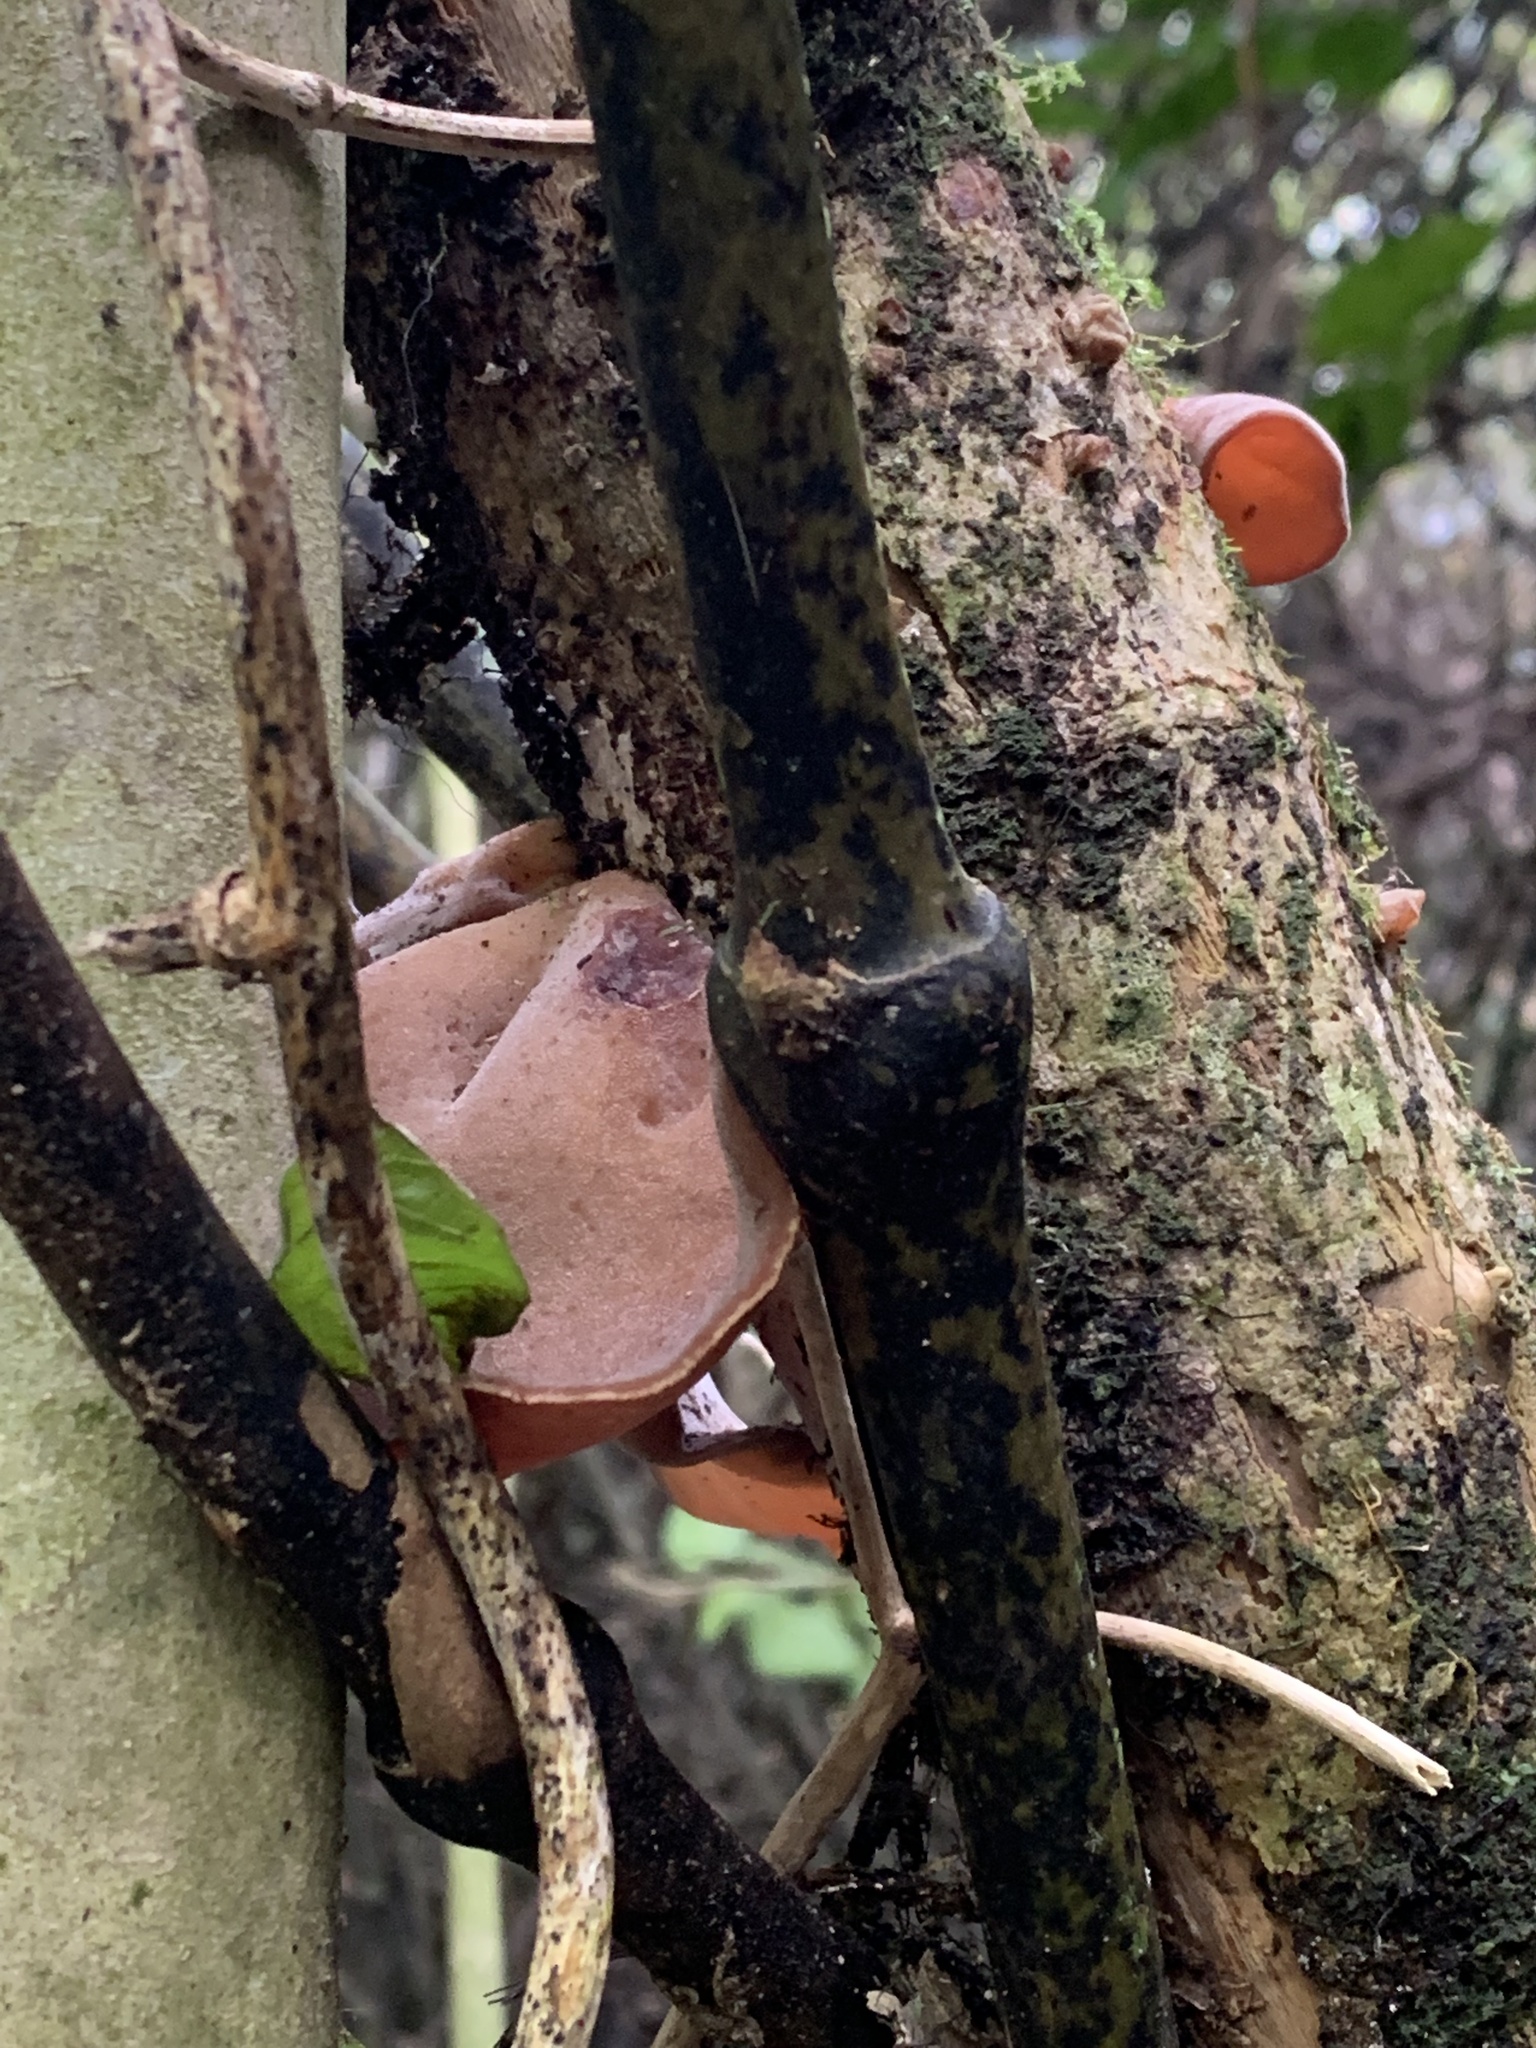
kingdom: Fungi
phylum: Basidiomycota
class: Agaricomycetes
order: Auriculariales
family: Auriculariaceae
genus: Auricularia
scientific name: Auricularia cornea
